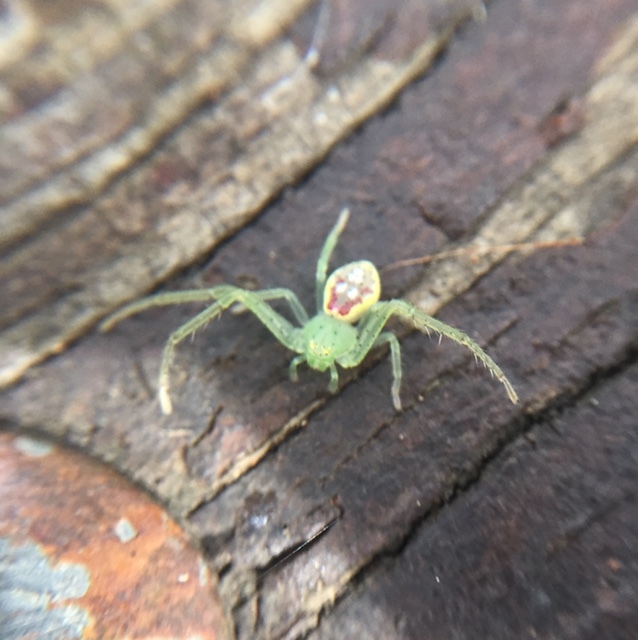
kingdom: Animalia
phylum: Arthropoda
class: Arachnida
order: Araneae
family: Thomisidae
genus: Diaea
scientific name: Diaea livens
